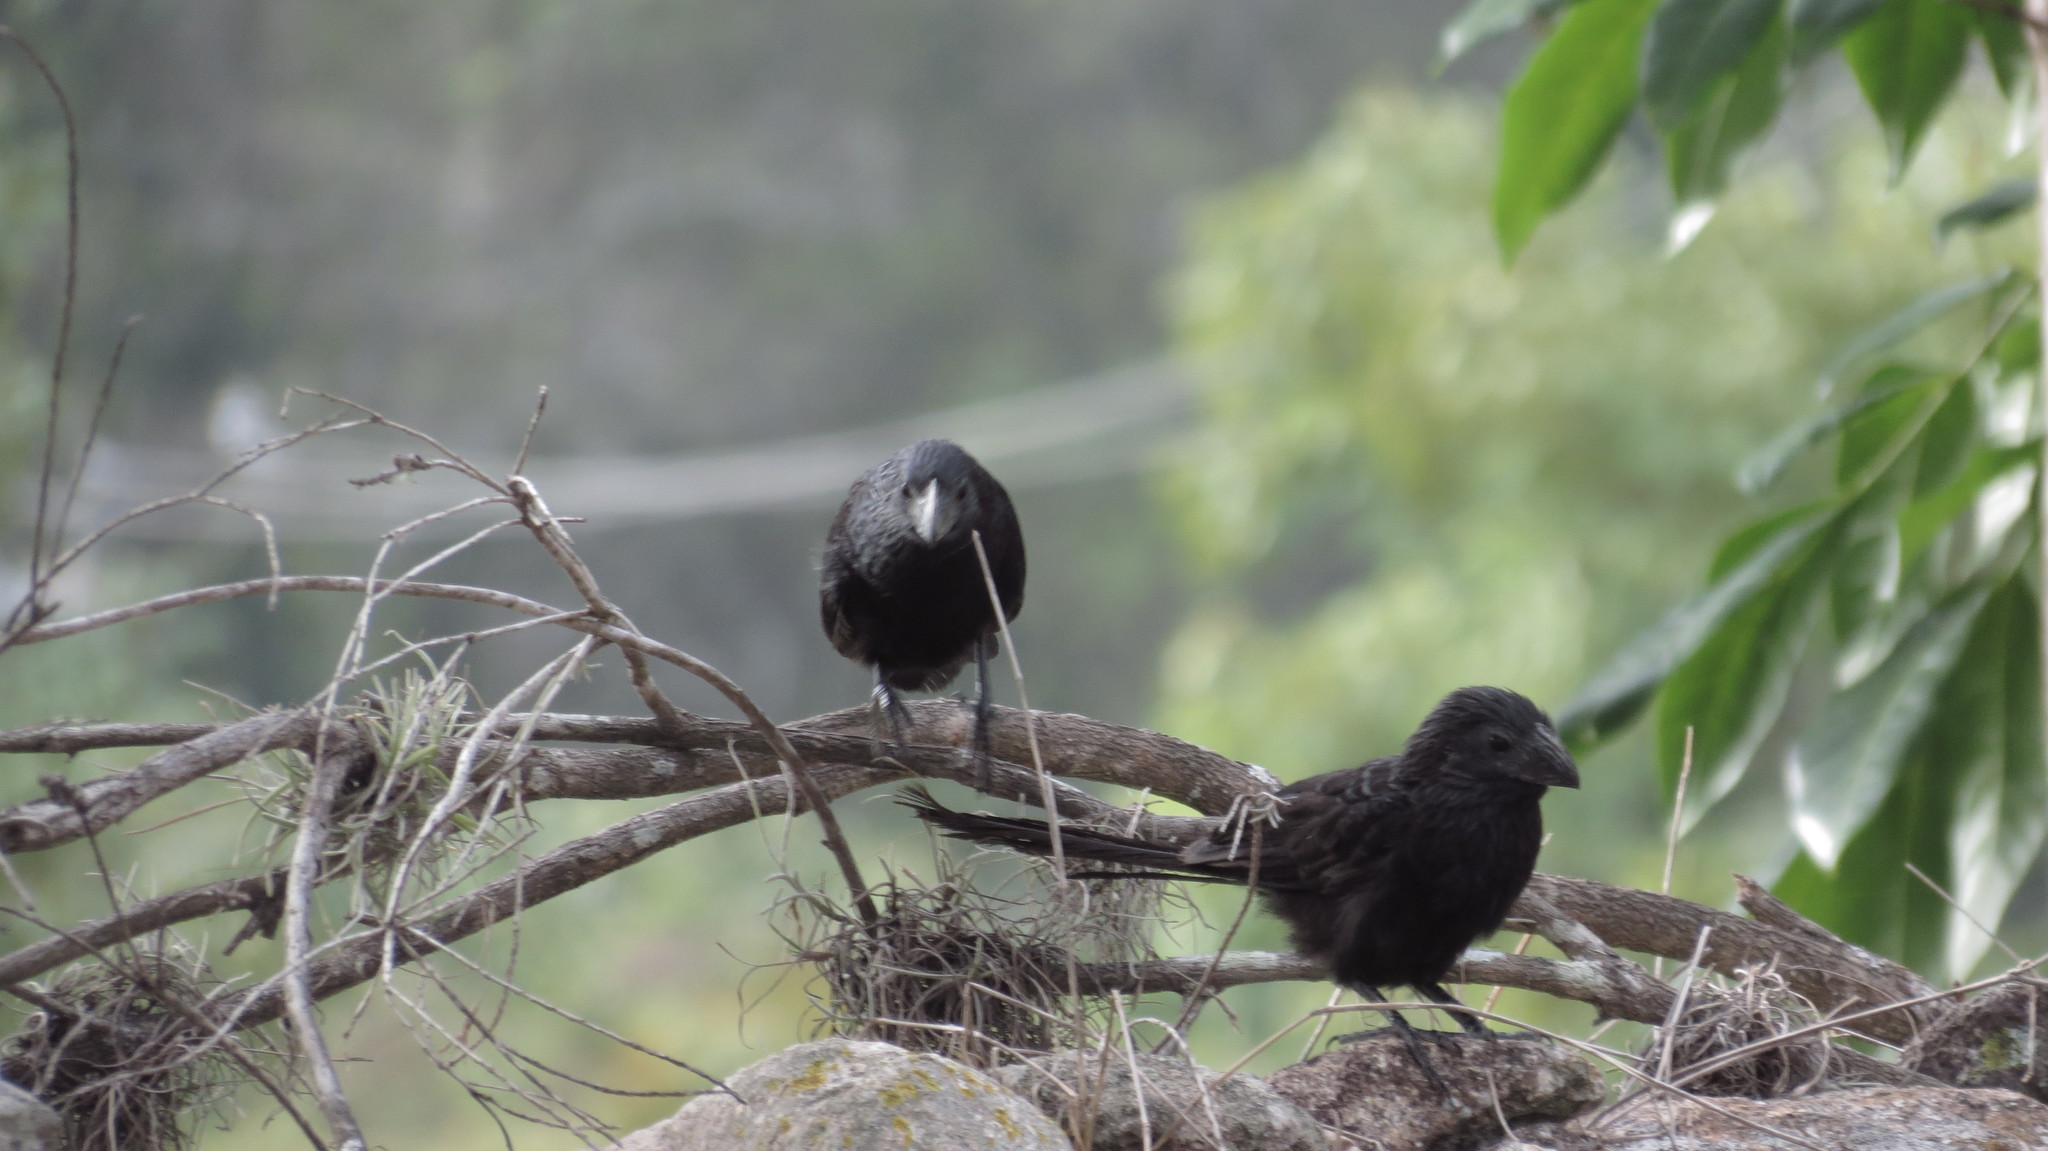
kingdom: Animalia
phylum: Chordata
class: Aves
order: Cuculiformes
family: Cuculidae
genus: Crotophaga
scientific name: Crotophaga sulcirostris
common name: Groove-billed ani
